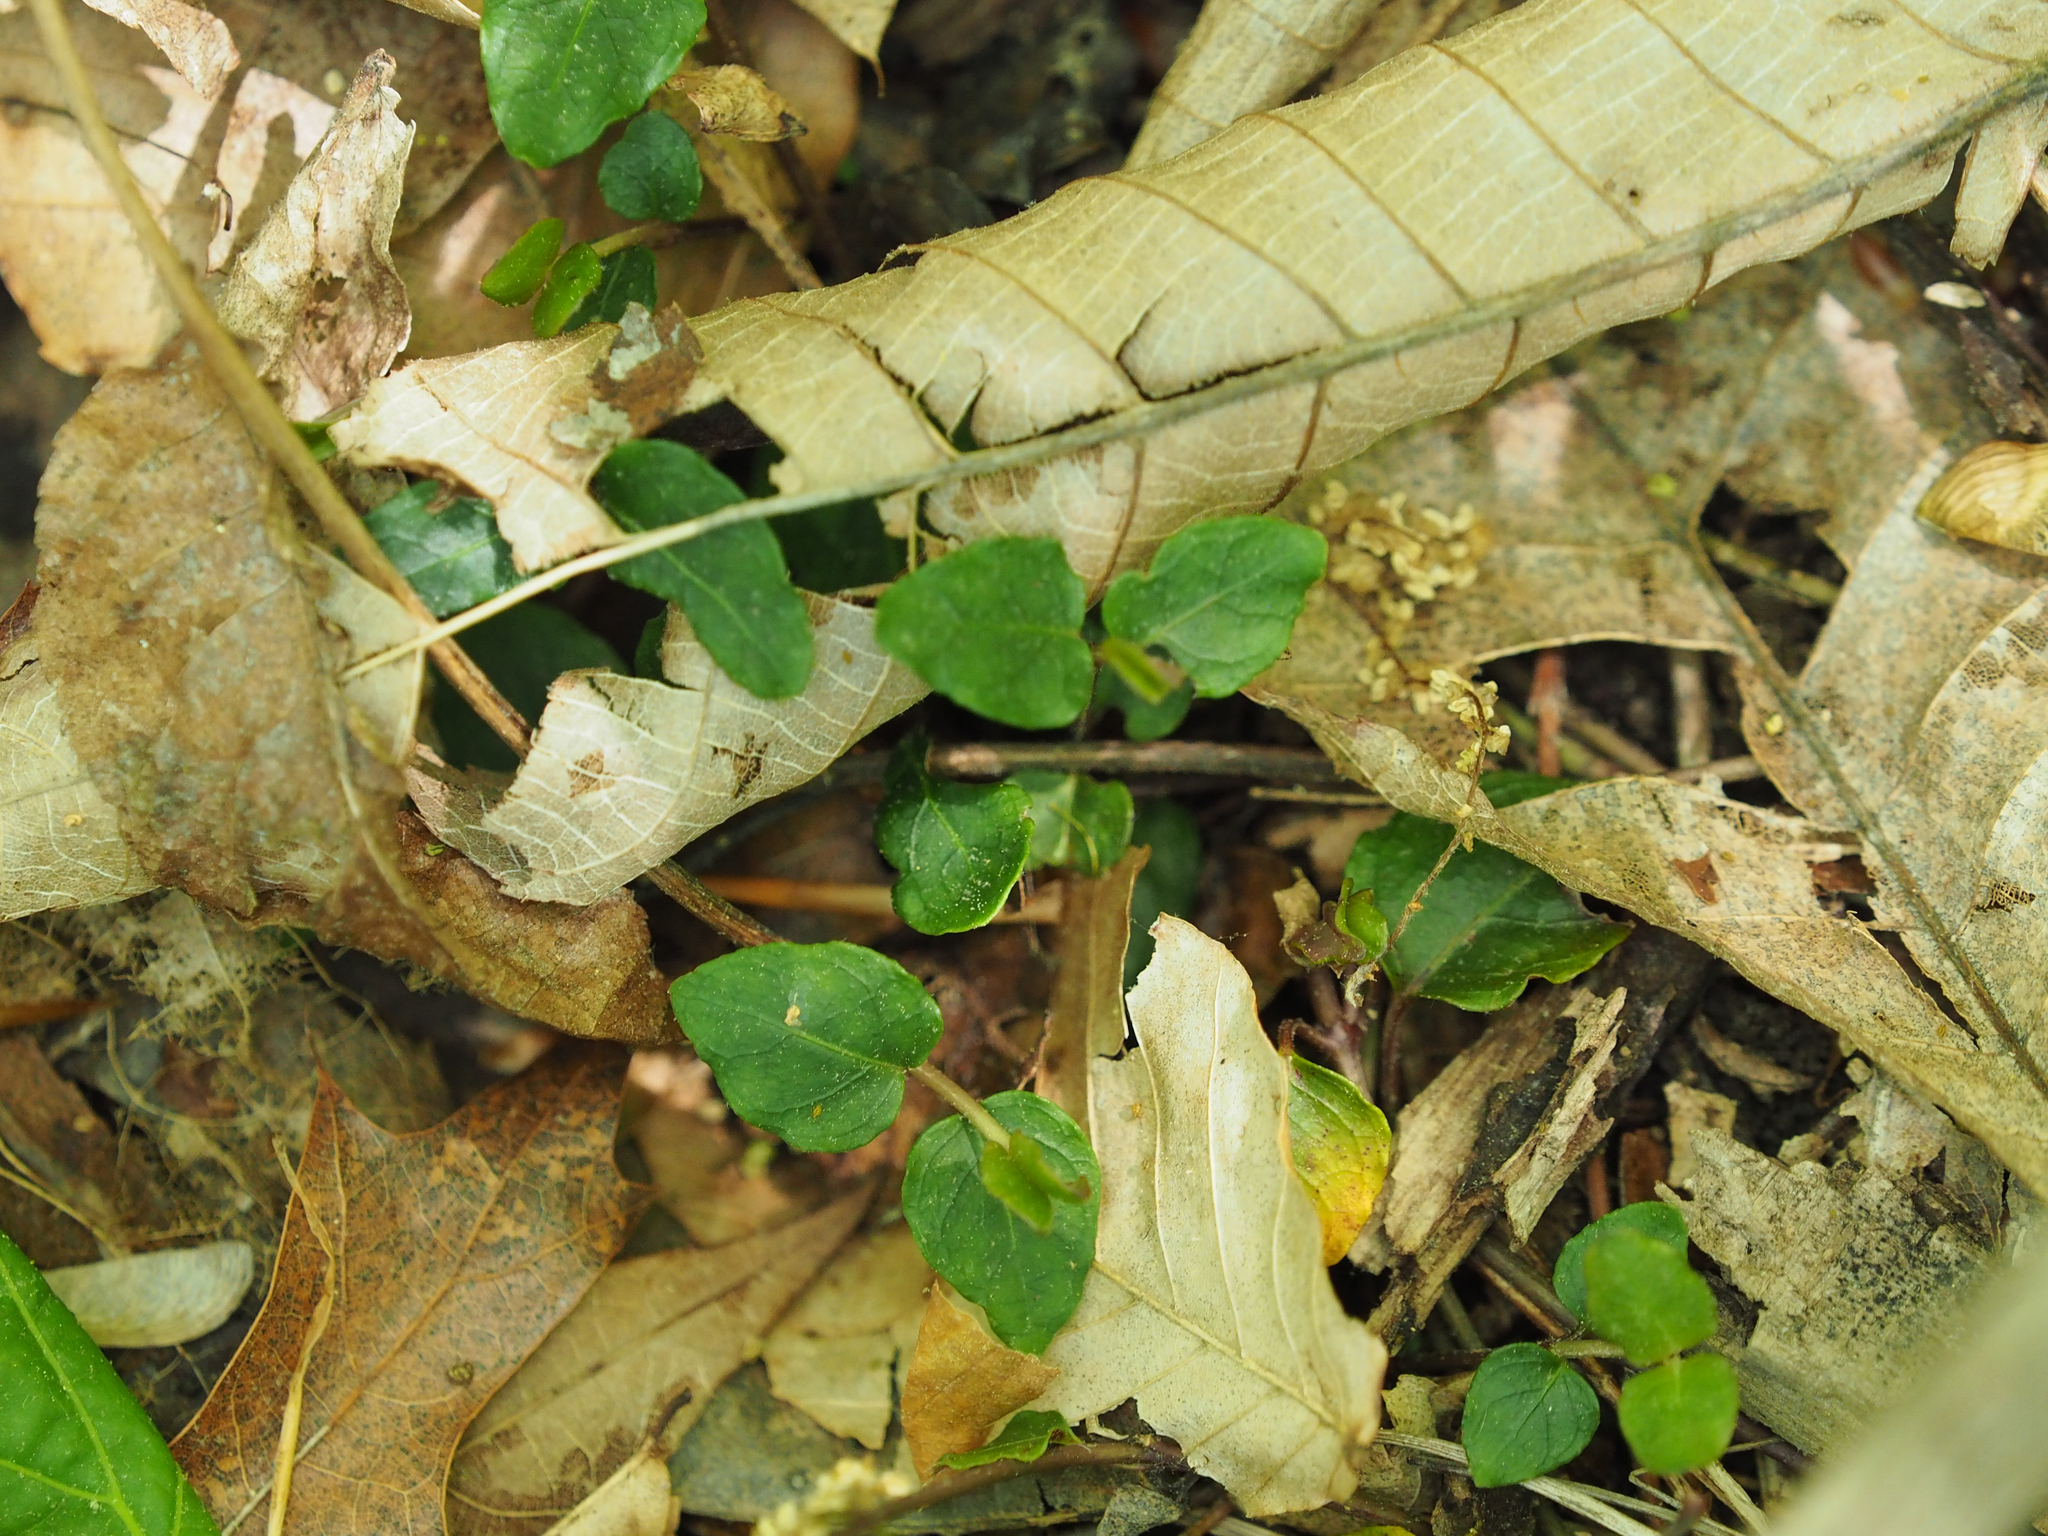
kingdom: Plantae
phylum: Tracheophyta
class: Magnoliopsida
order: Gentianales
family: Rubiaceae
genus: Mitchella
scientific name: Mitchella repens
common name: Partridge-berry
